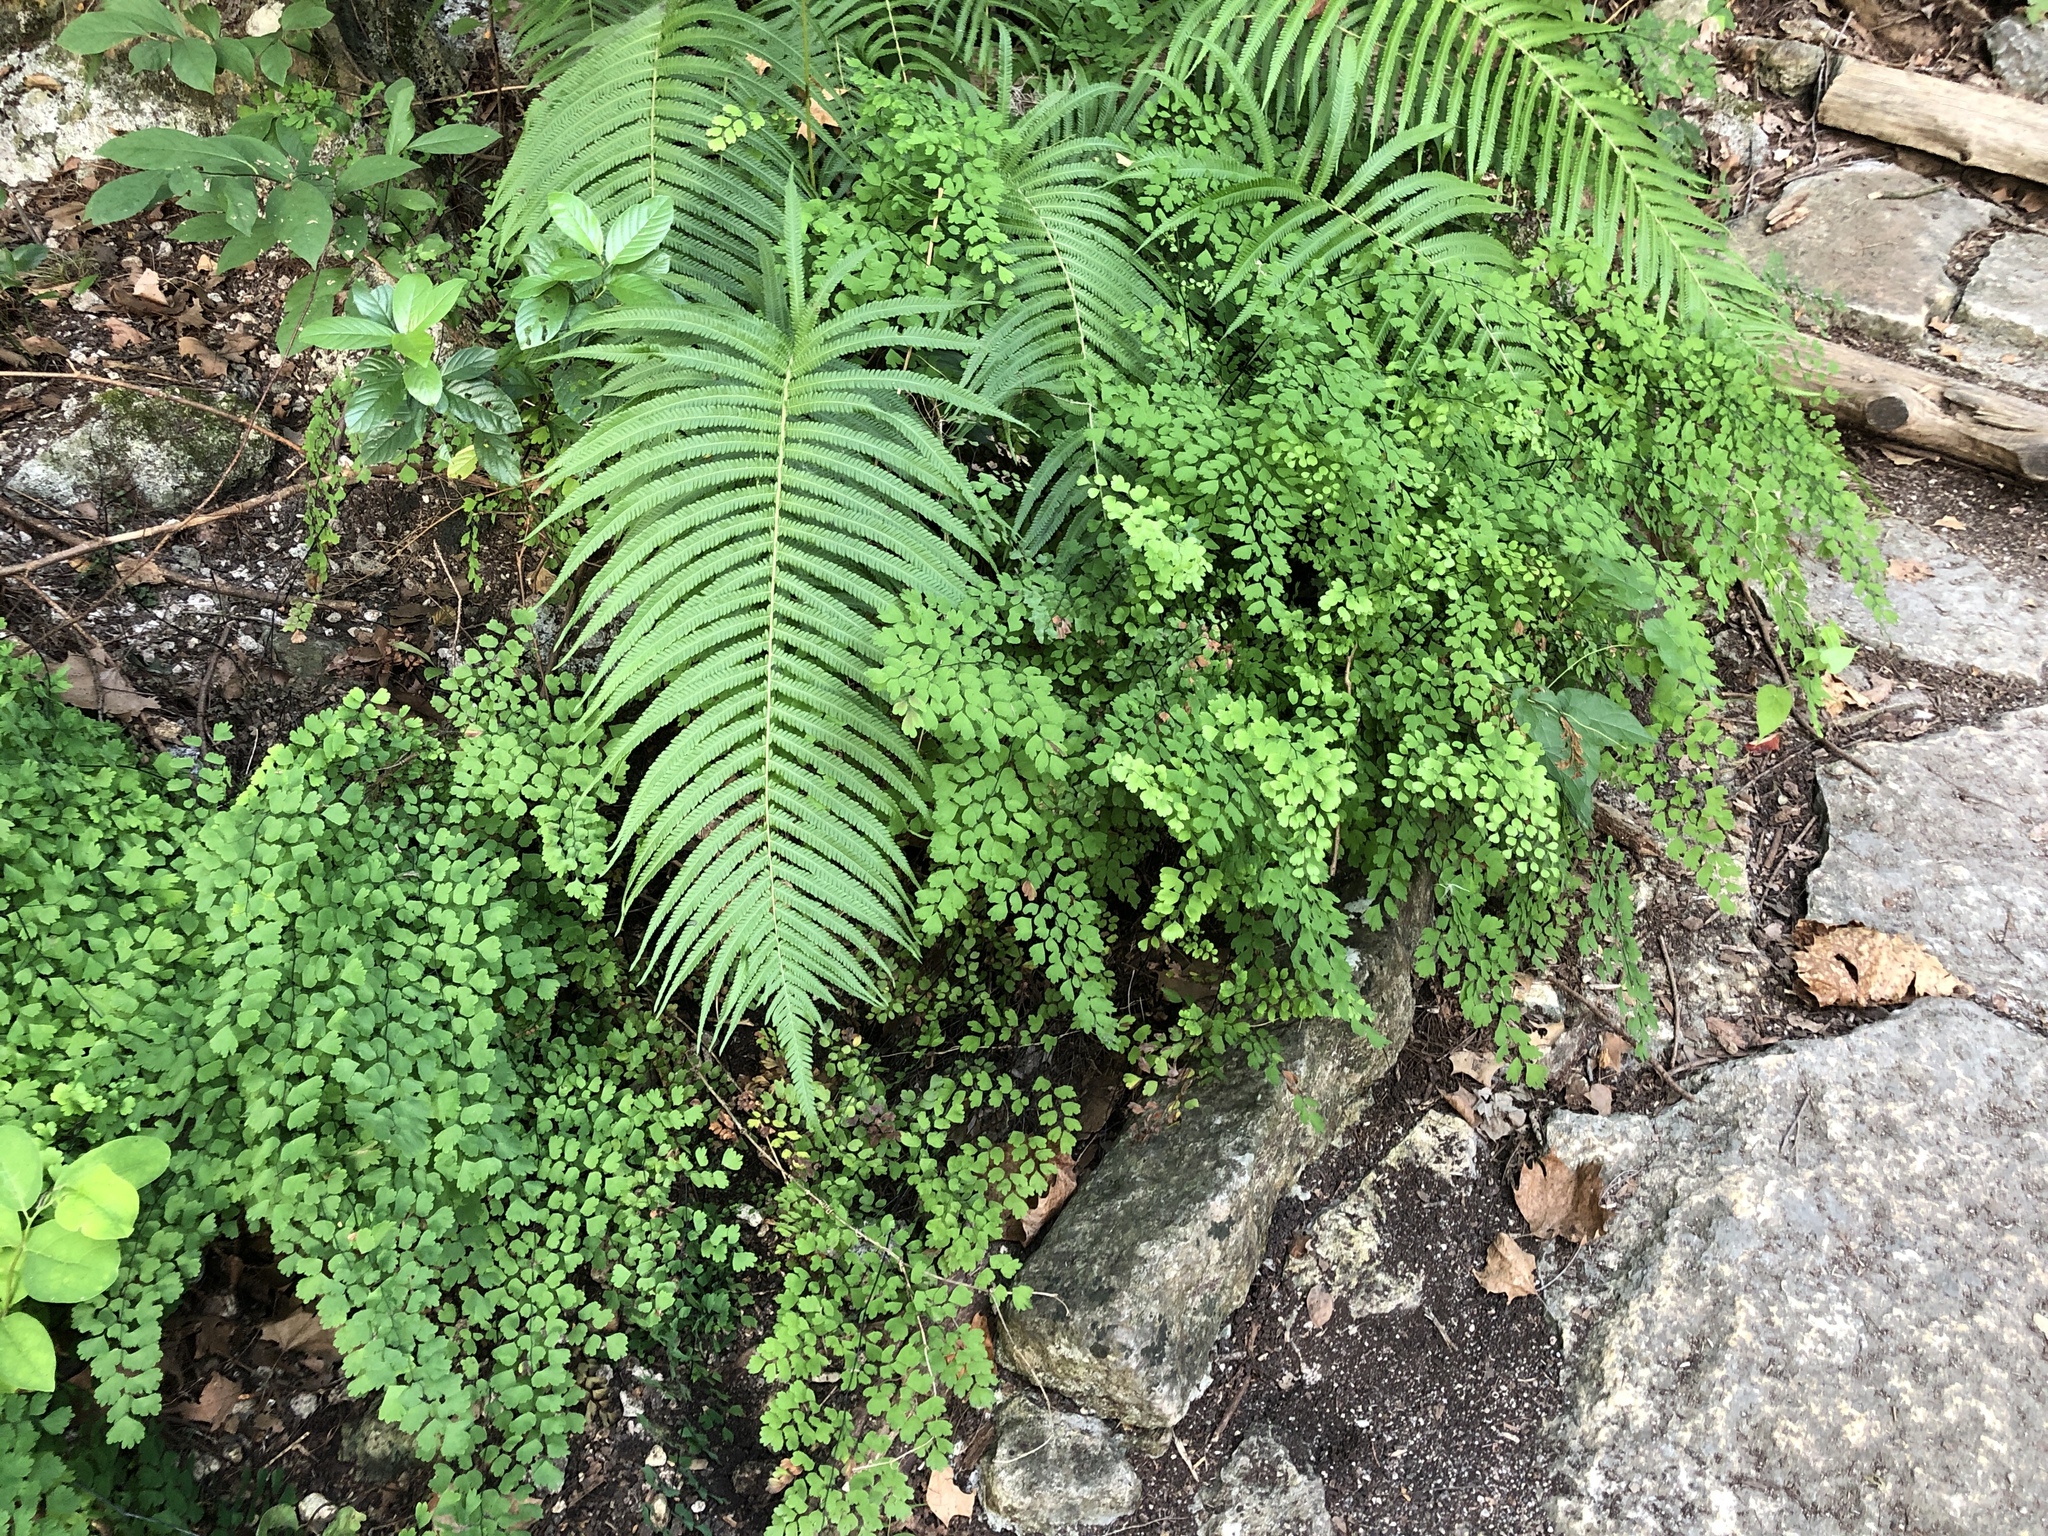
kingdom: Plantae
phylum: Tracheophyta
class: Polypodiopsida
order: Polypodiales
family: Pteridaceae
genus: Adiantum
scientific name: Adiantum capillus-veneris
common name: Maidenhair fern
